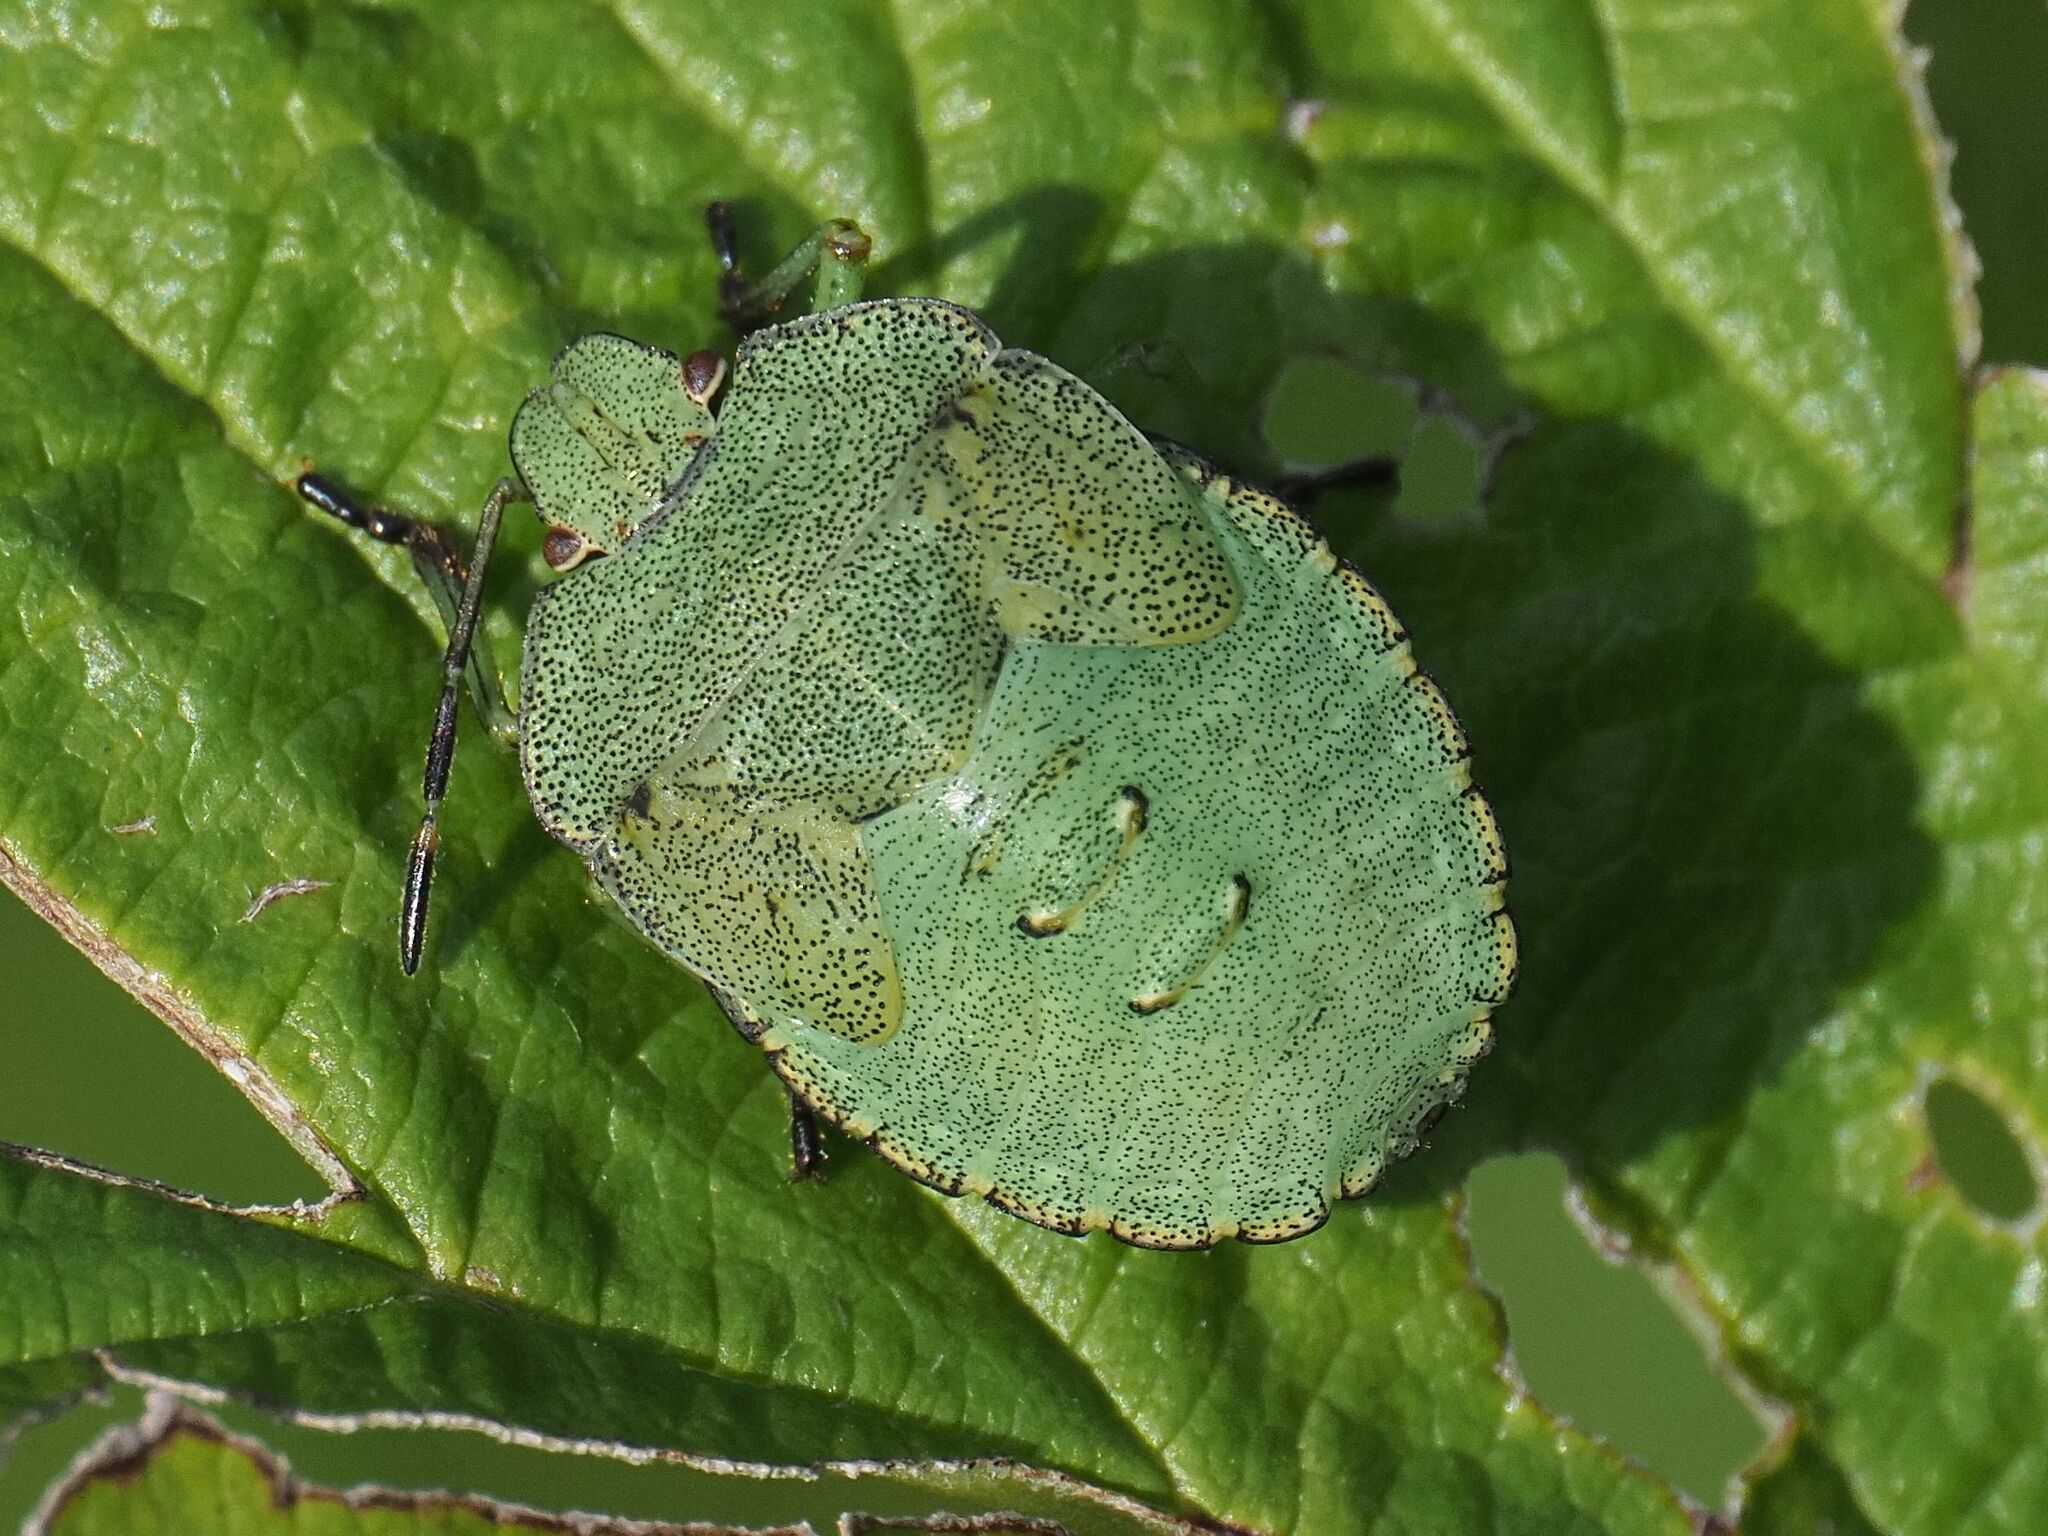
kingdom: Animalia
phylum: Arthropoda
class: Insecta
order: Hemiptera
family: Pentatomidae
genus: Palomena
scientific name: Palomena prasina
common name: Green shieldbug
